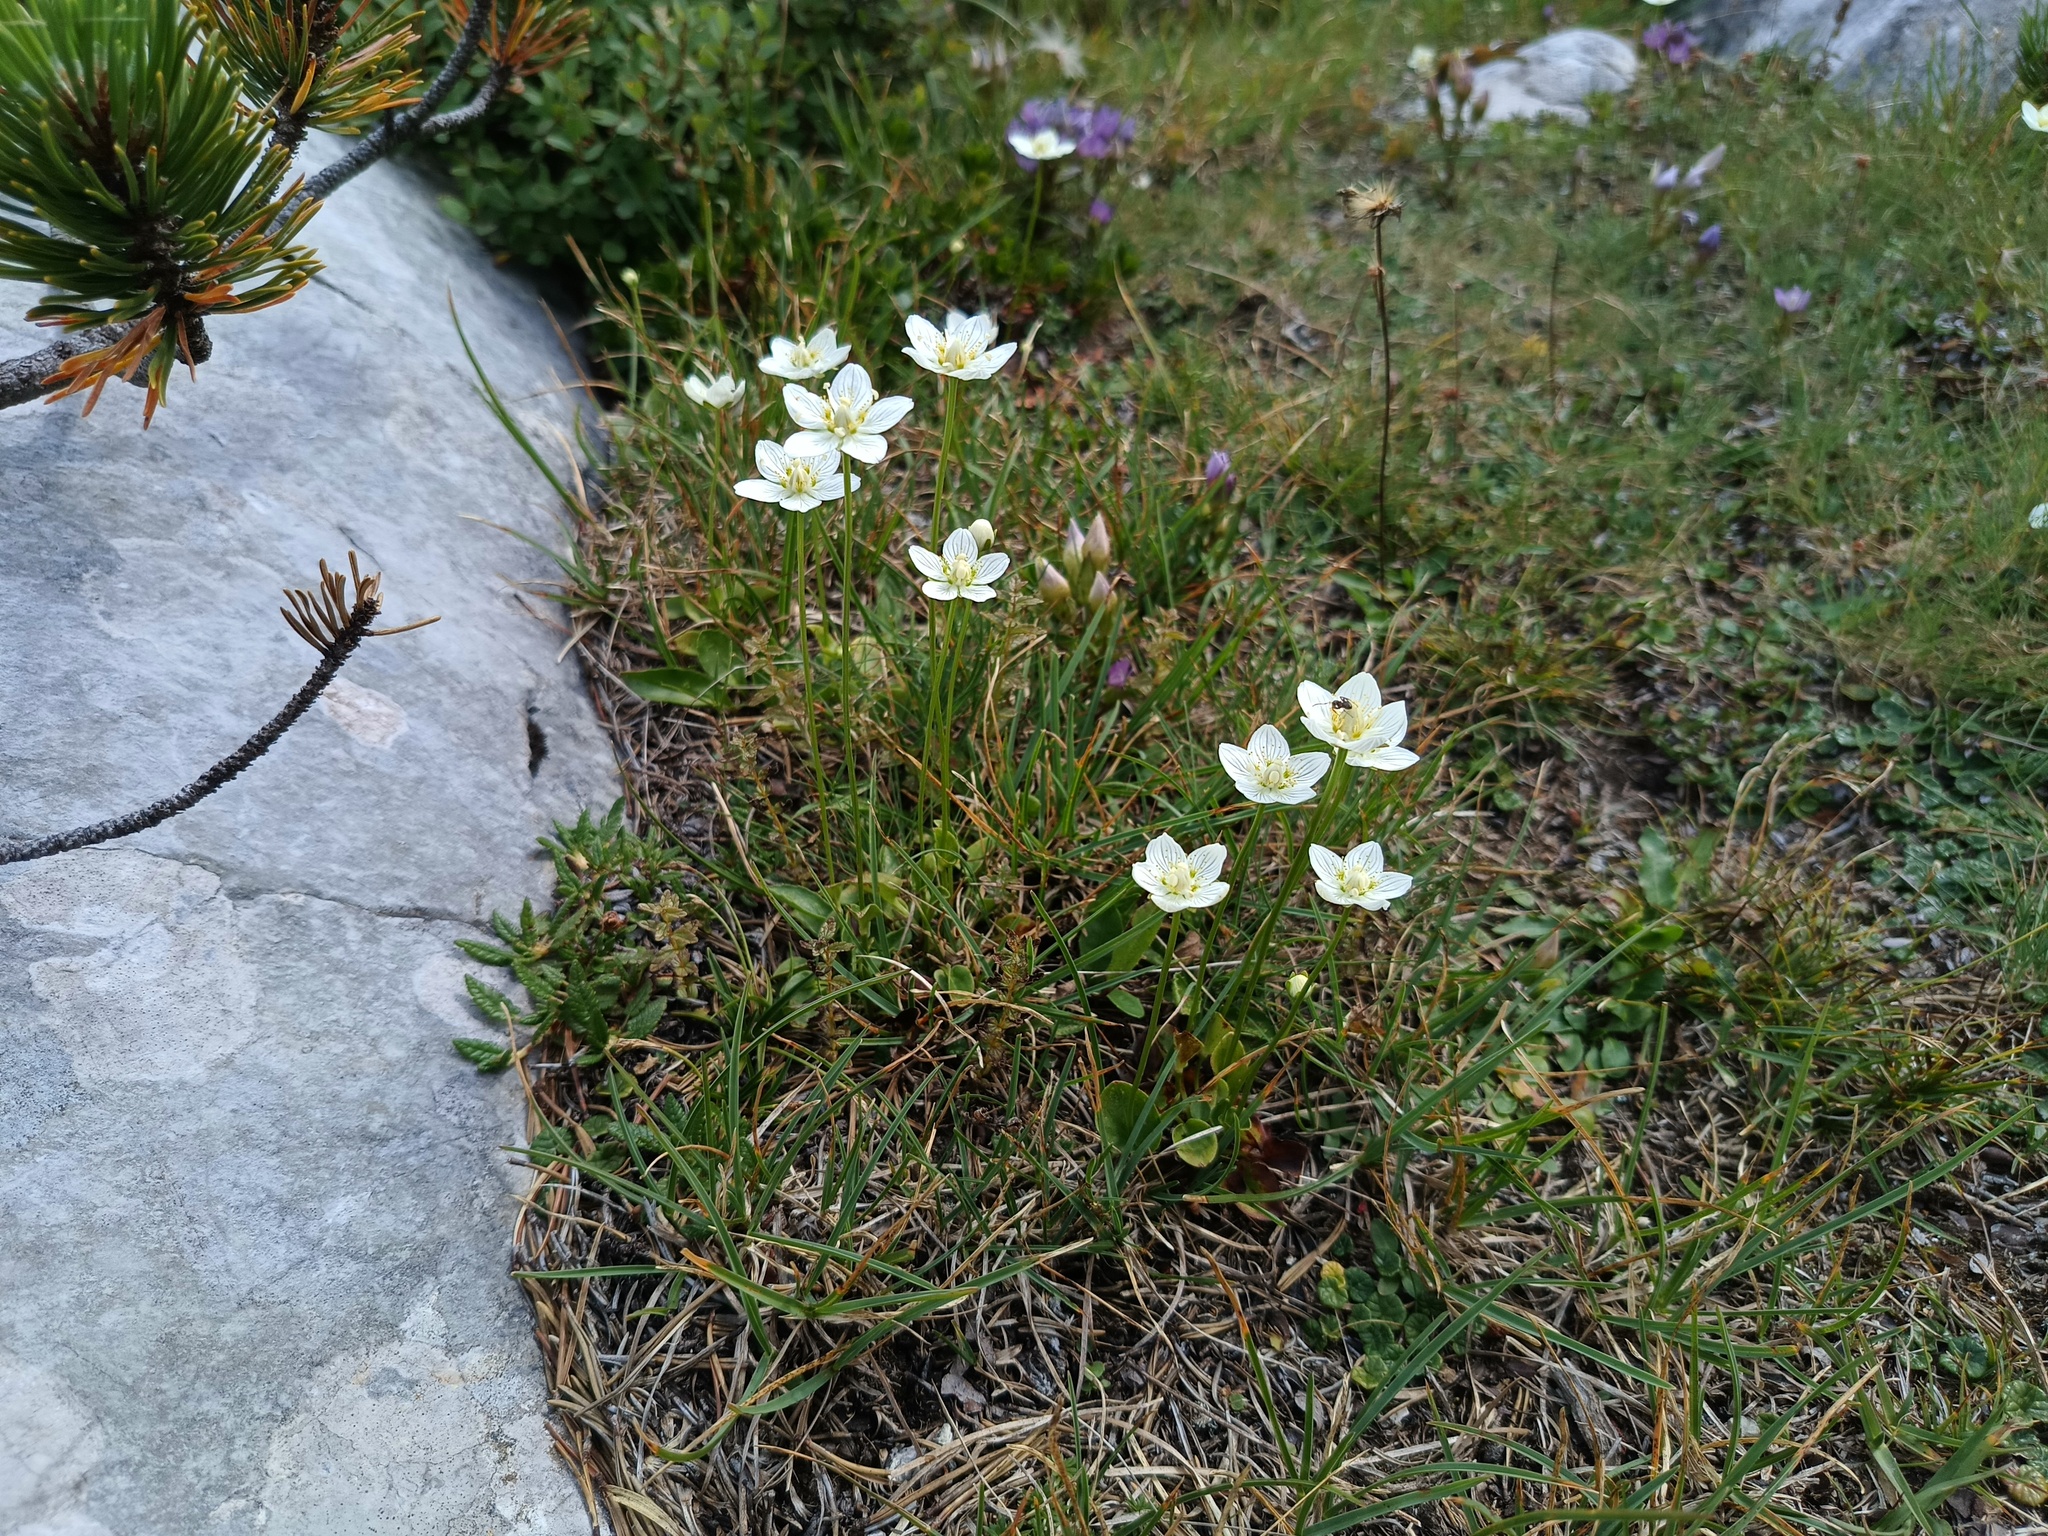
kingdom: Plantae
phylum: Tracheophyta
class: Magnoliopsida
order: Celastrales
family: Parnassiaceae
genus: Parnassia
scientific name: Parnassia palustris
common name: Grass-of-parnassus
